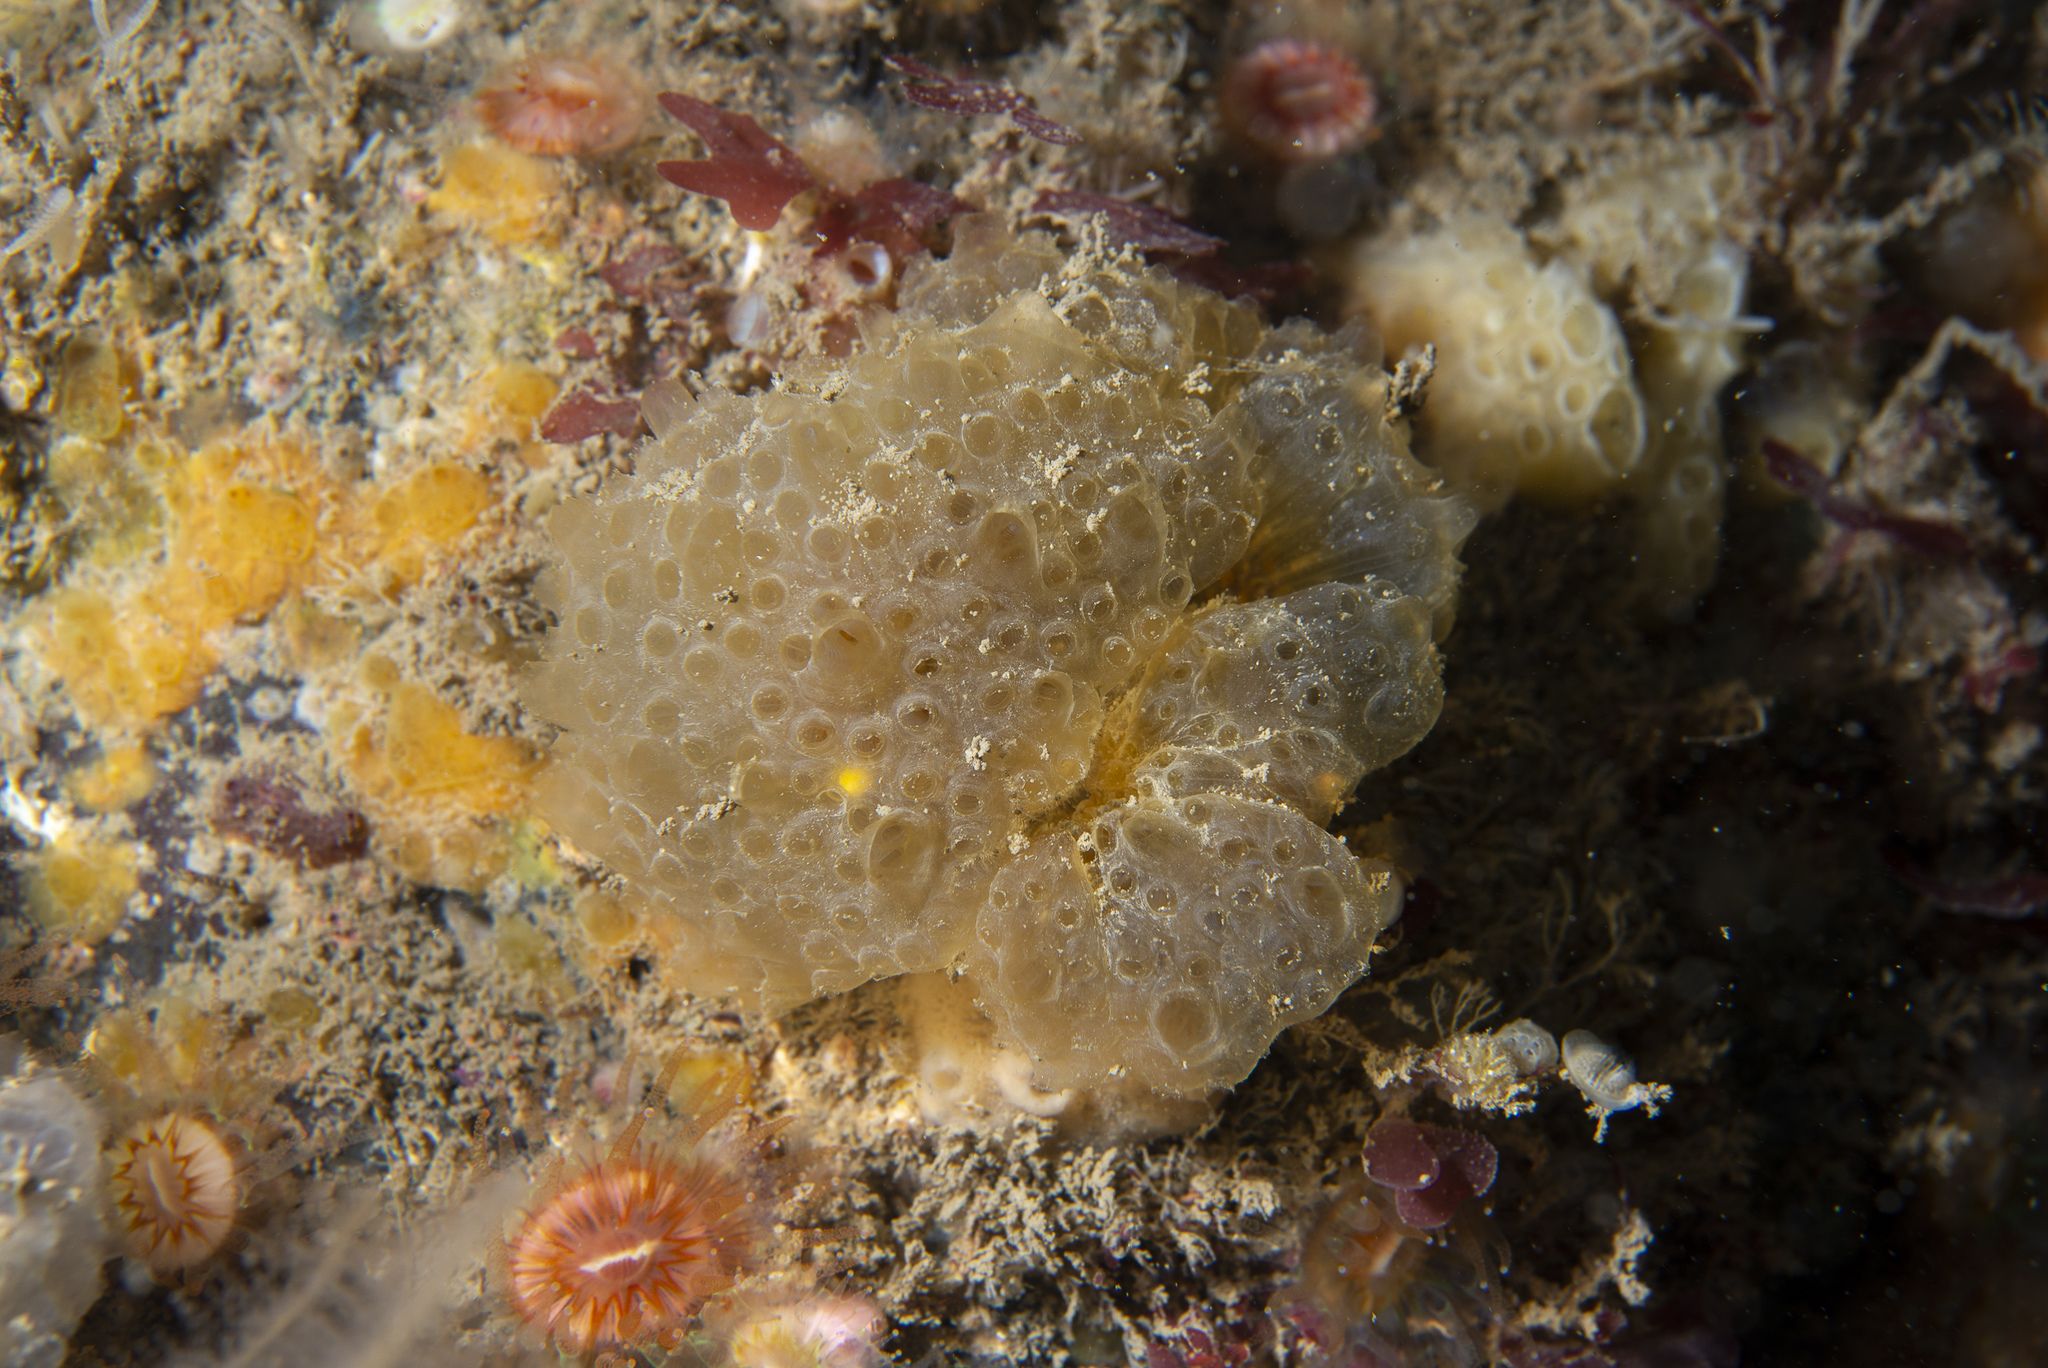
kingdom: Animalia
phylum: Chordata
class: Ascidiacea
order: Aplousobranchia
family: Polyclinidae
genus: Polyclinum
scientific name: Polyclinum aurantium
